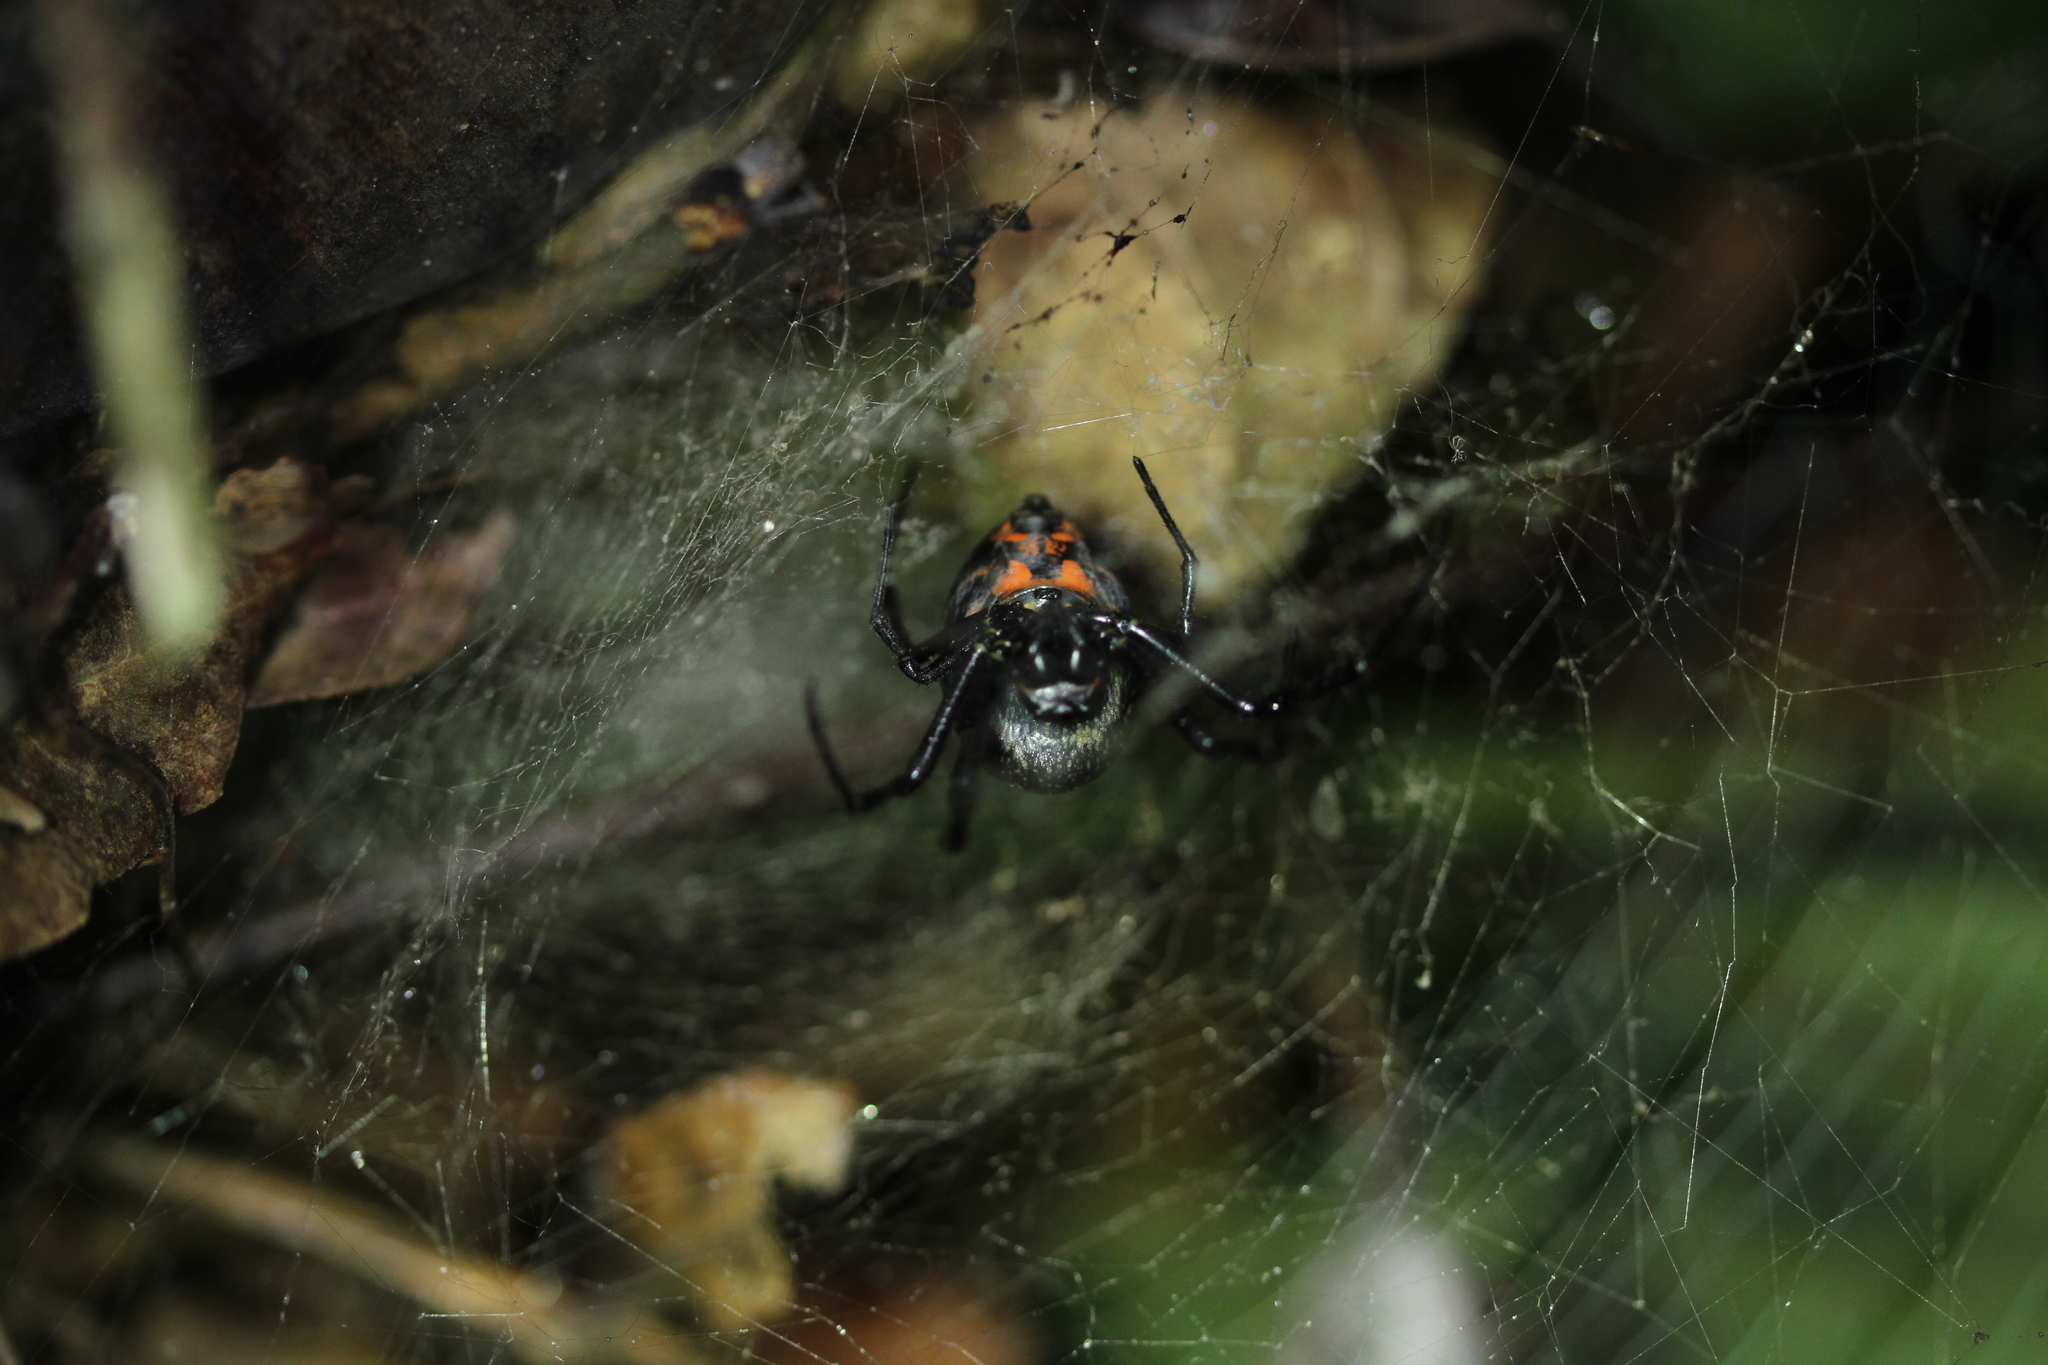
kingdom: Animalia
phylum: Arthropoda
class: Arachnida
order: Araneae
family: Araneidae
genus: Nephilengys
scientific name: Nephilengys malabarensis
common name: Asian hermit spider
